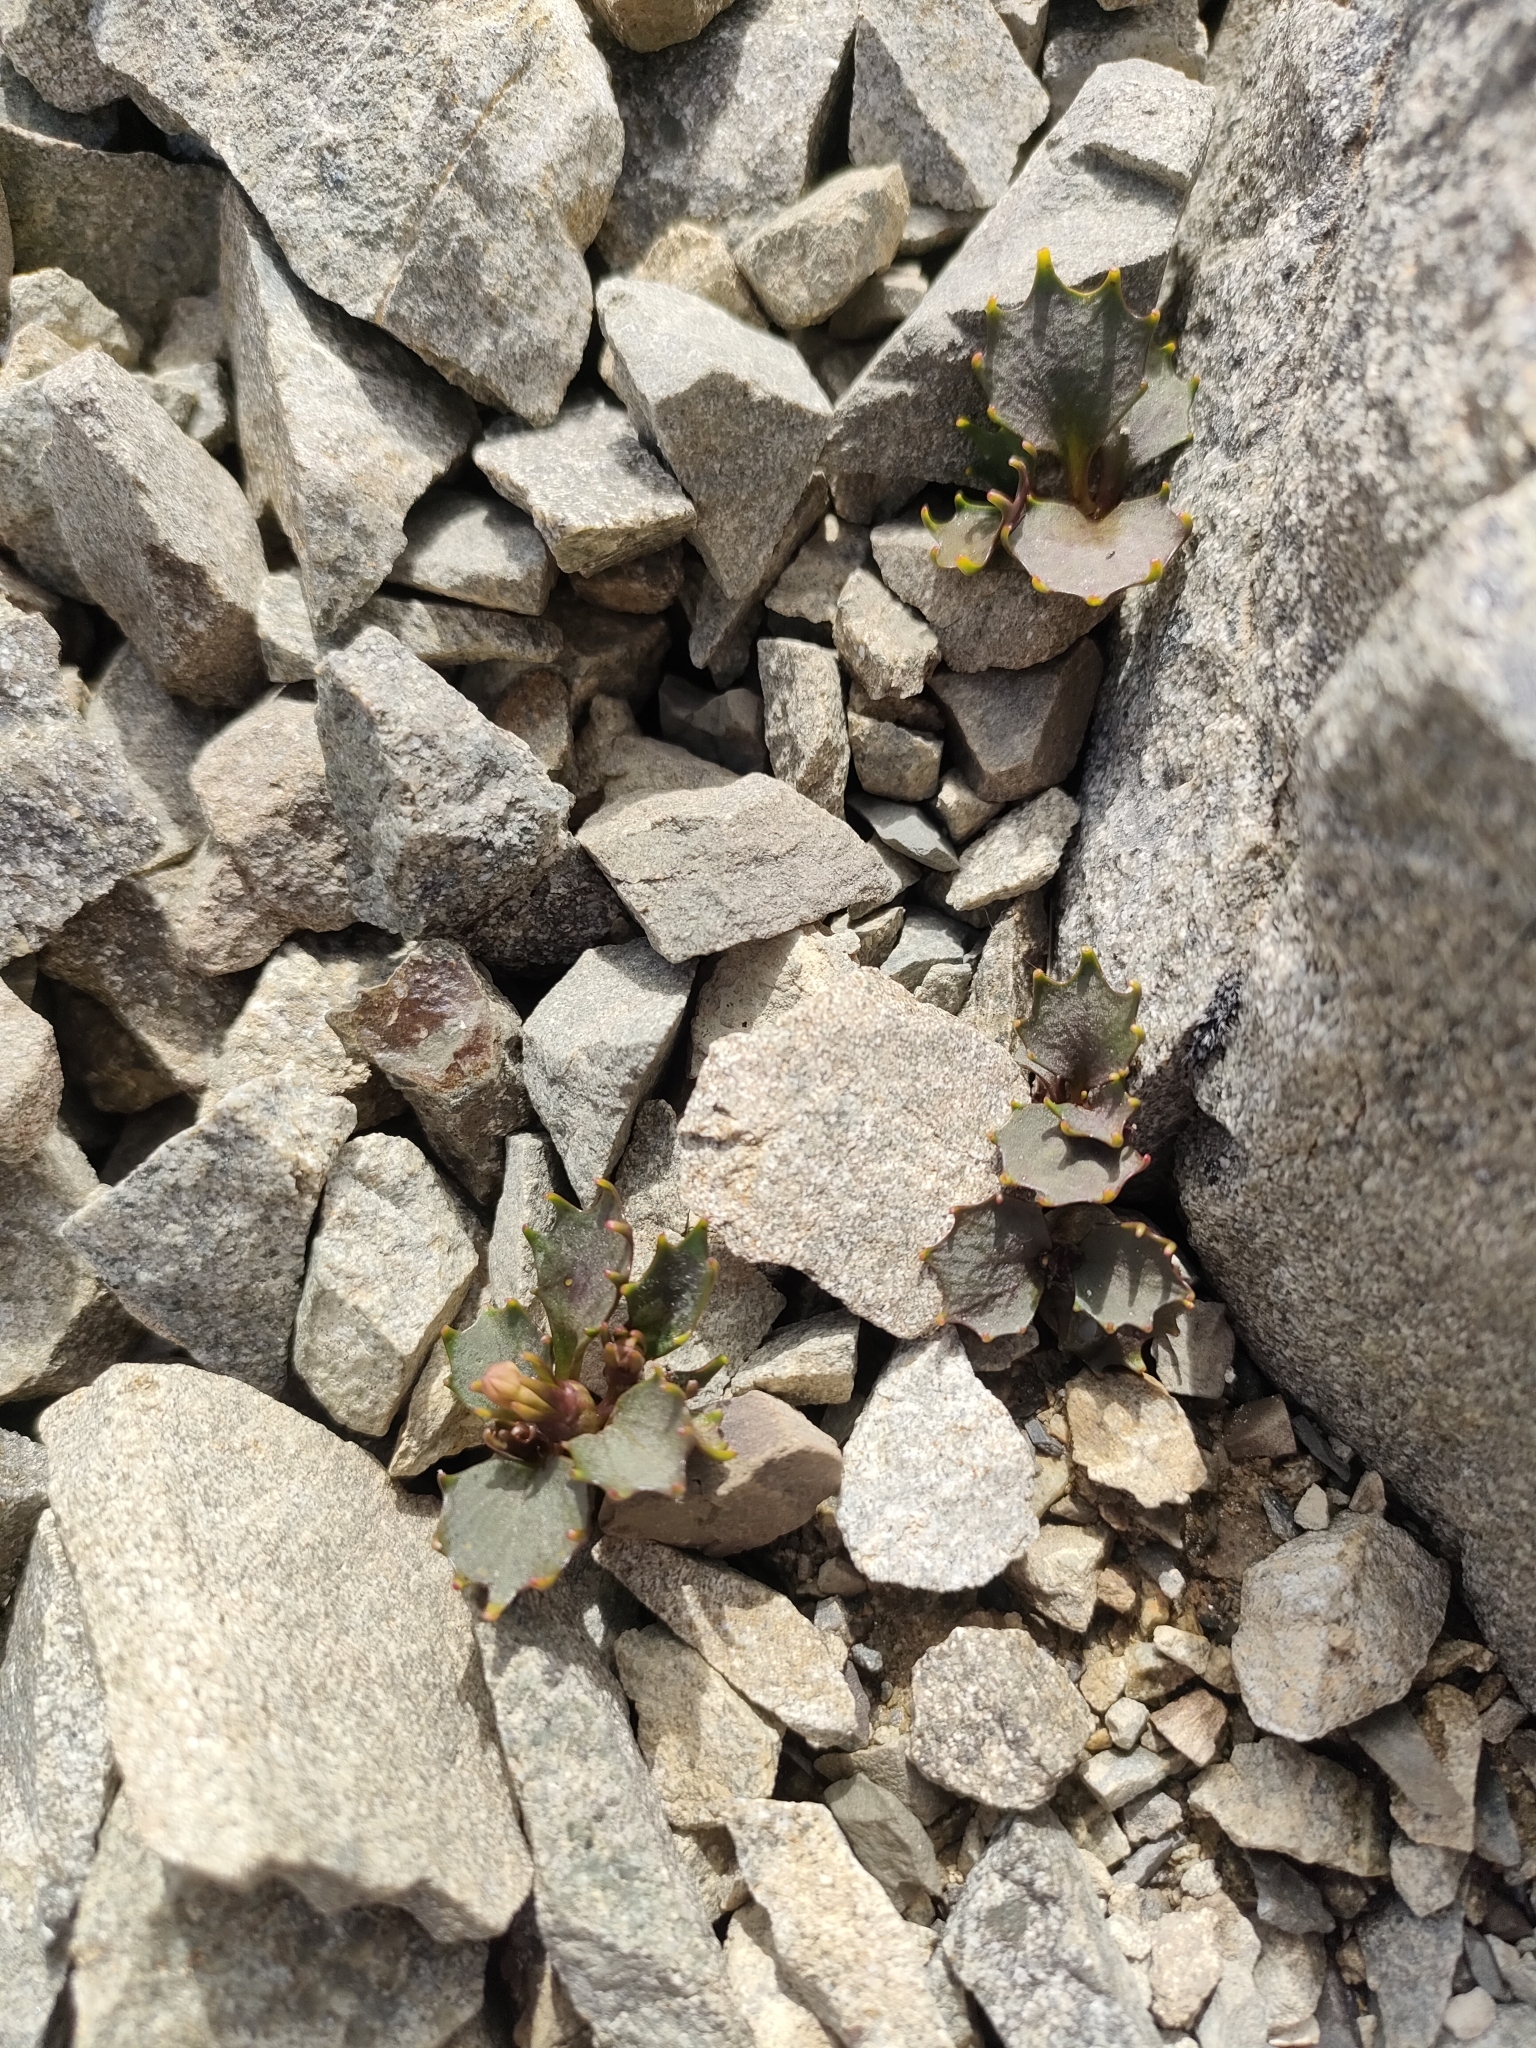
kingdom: Plantae
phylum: Tracheophyta
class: Magnoliopsida
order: Asterales
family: Campanulaceae
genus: Lobelia
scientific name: Lobelia roughii
